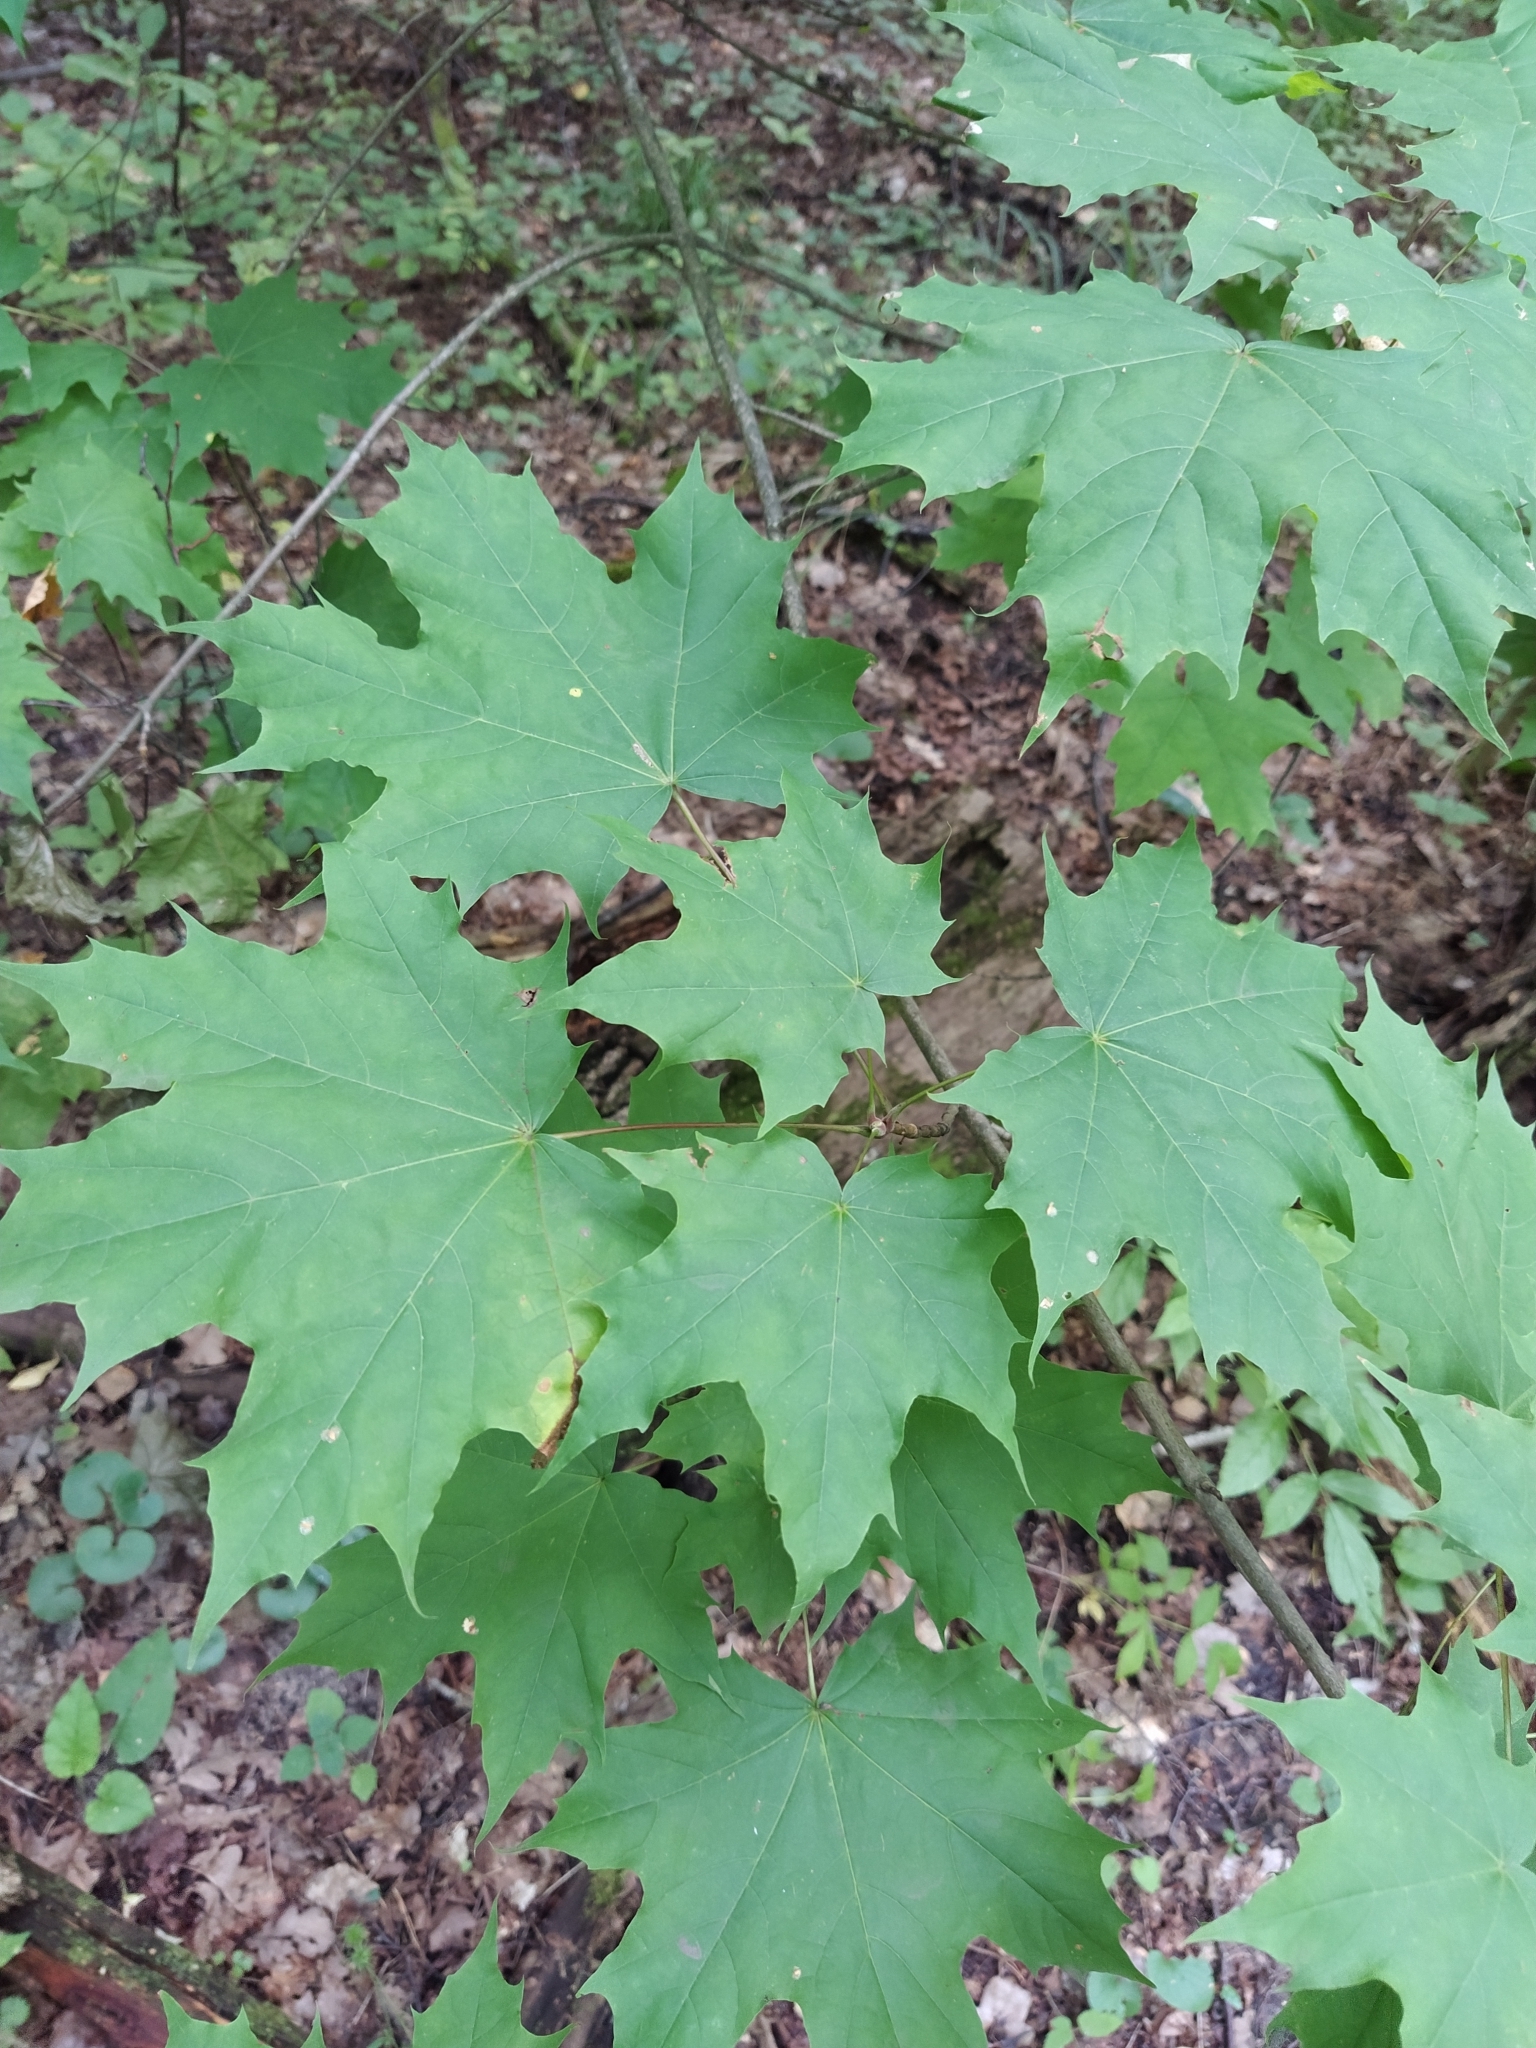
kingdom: Plantae
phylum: Tracheophyta
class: Magnoliopsida
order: Sapindales
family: Sapindaceae
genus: Acer
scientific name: Acer platanoides
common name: Norway maple
